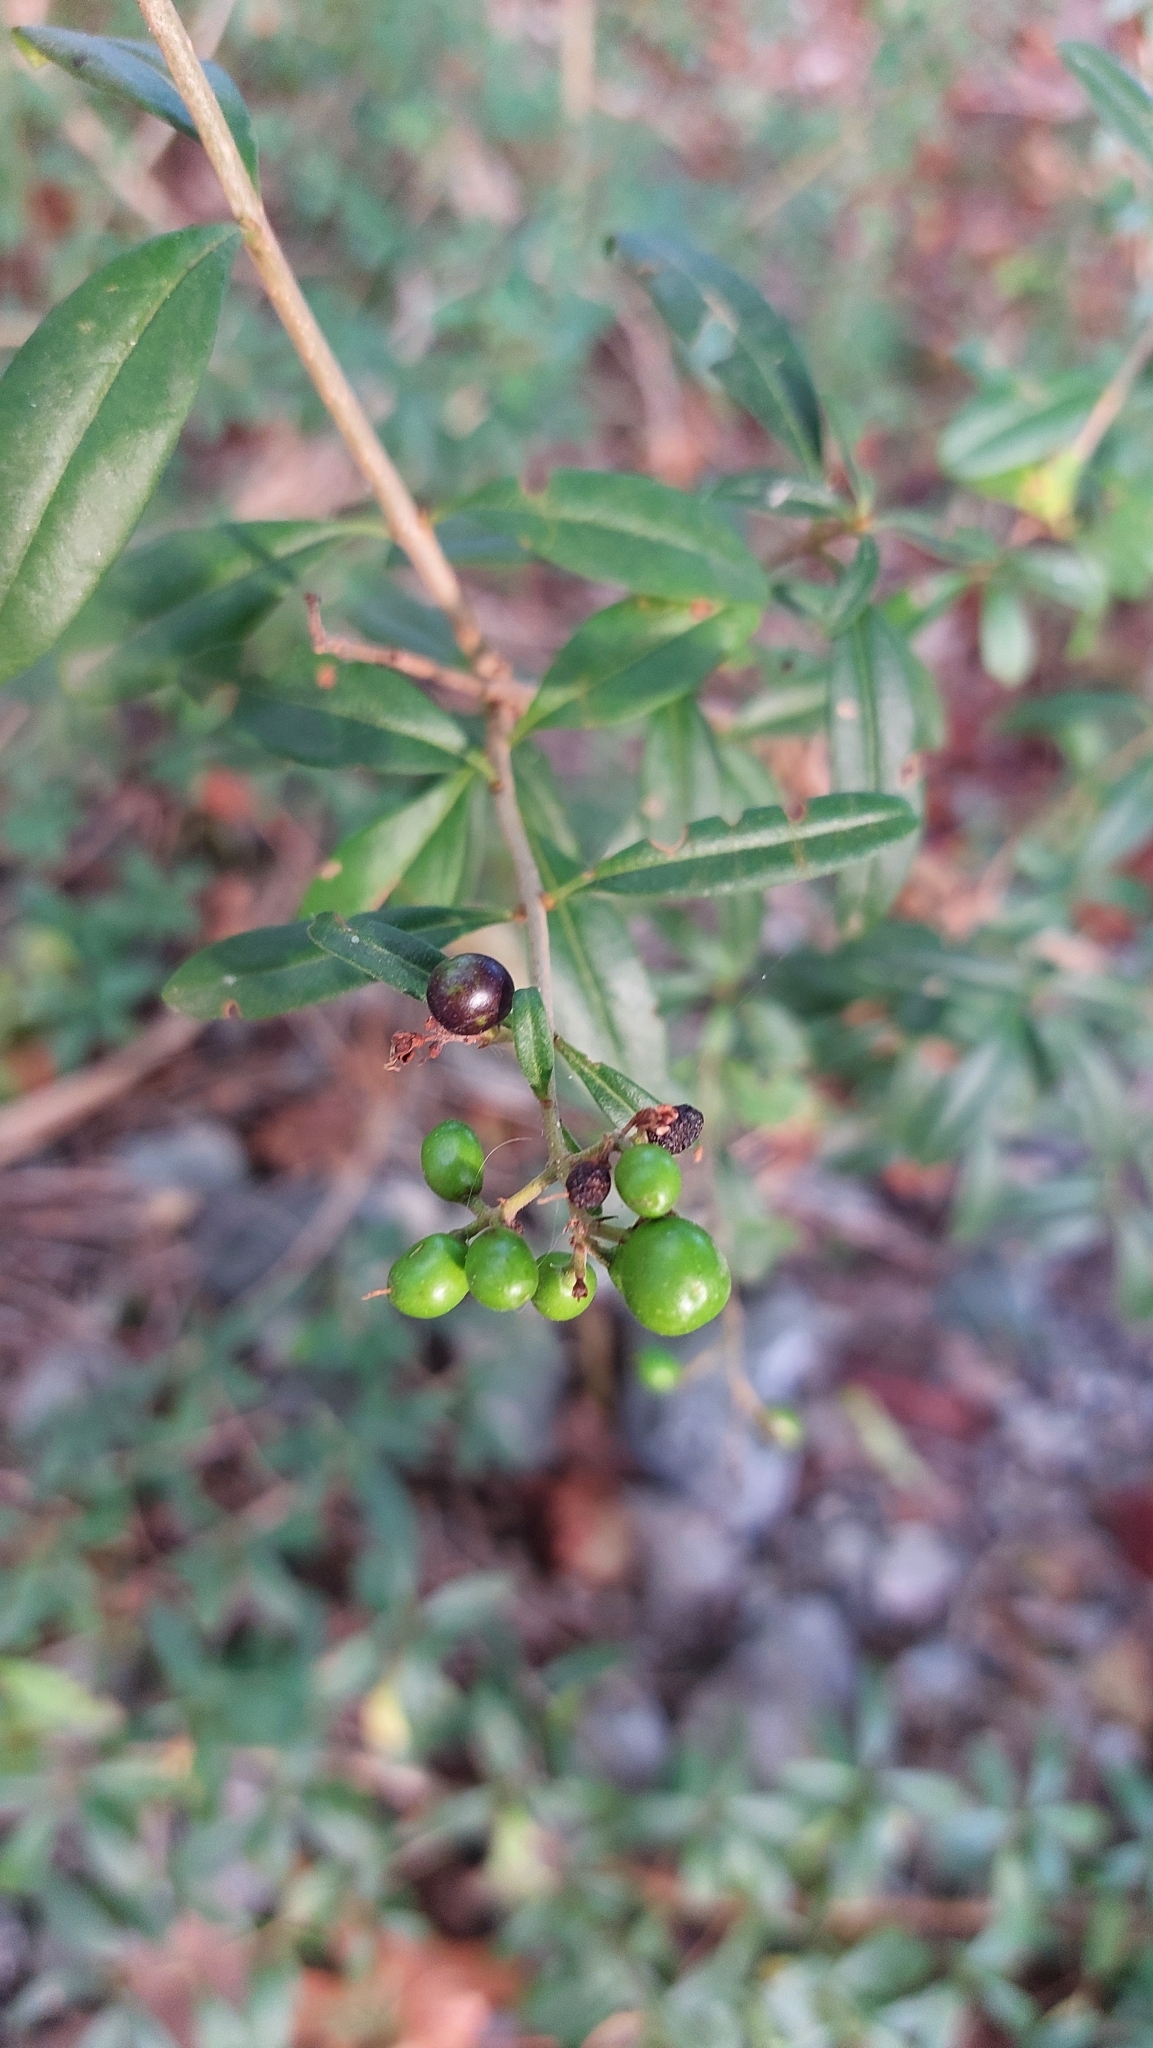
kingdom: Plantae
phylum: Tracheophyta
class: Magnoliopsida
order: Lamiales
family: Oleaceae
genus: Ligustrum
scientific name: Ligustrum vulgare
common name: Wild privet
